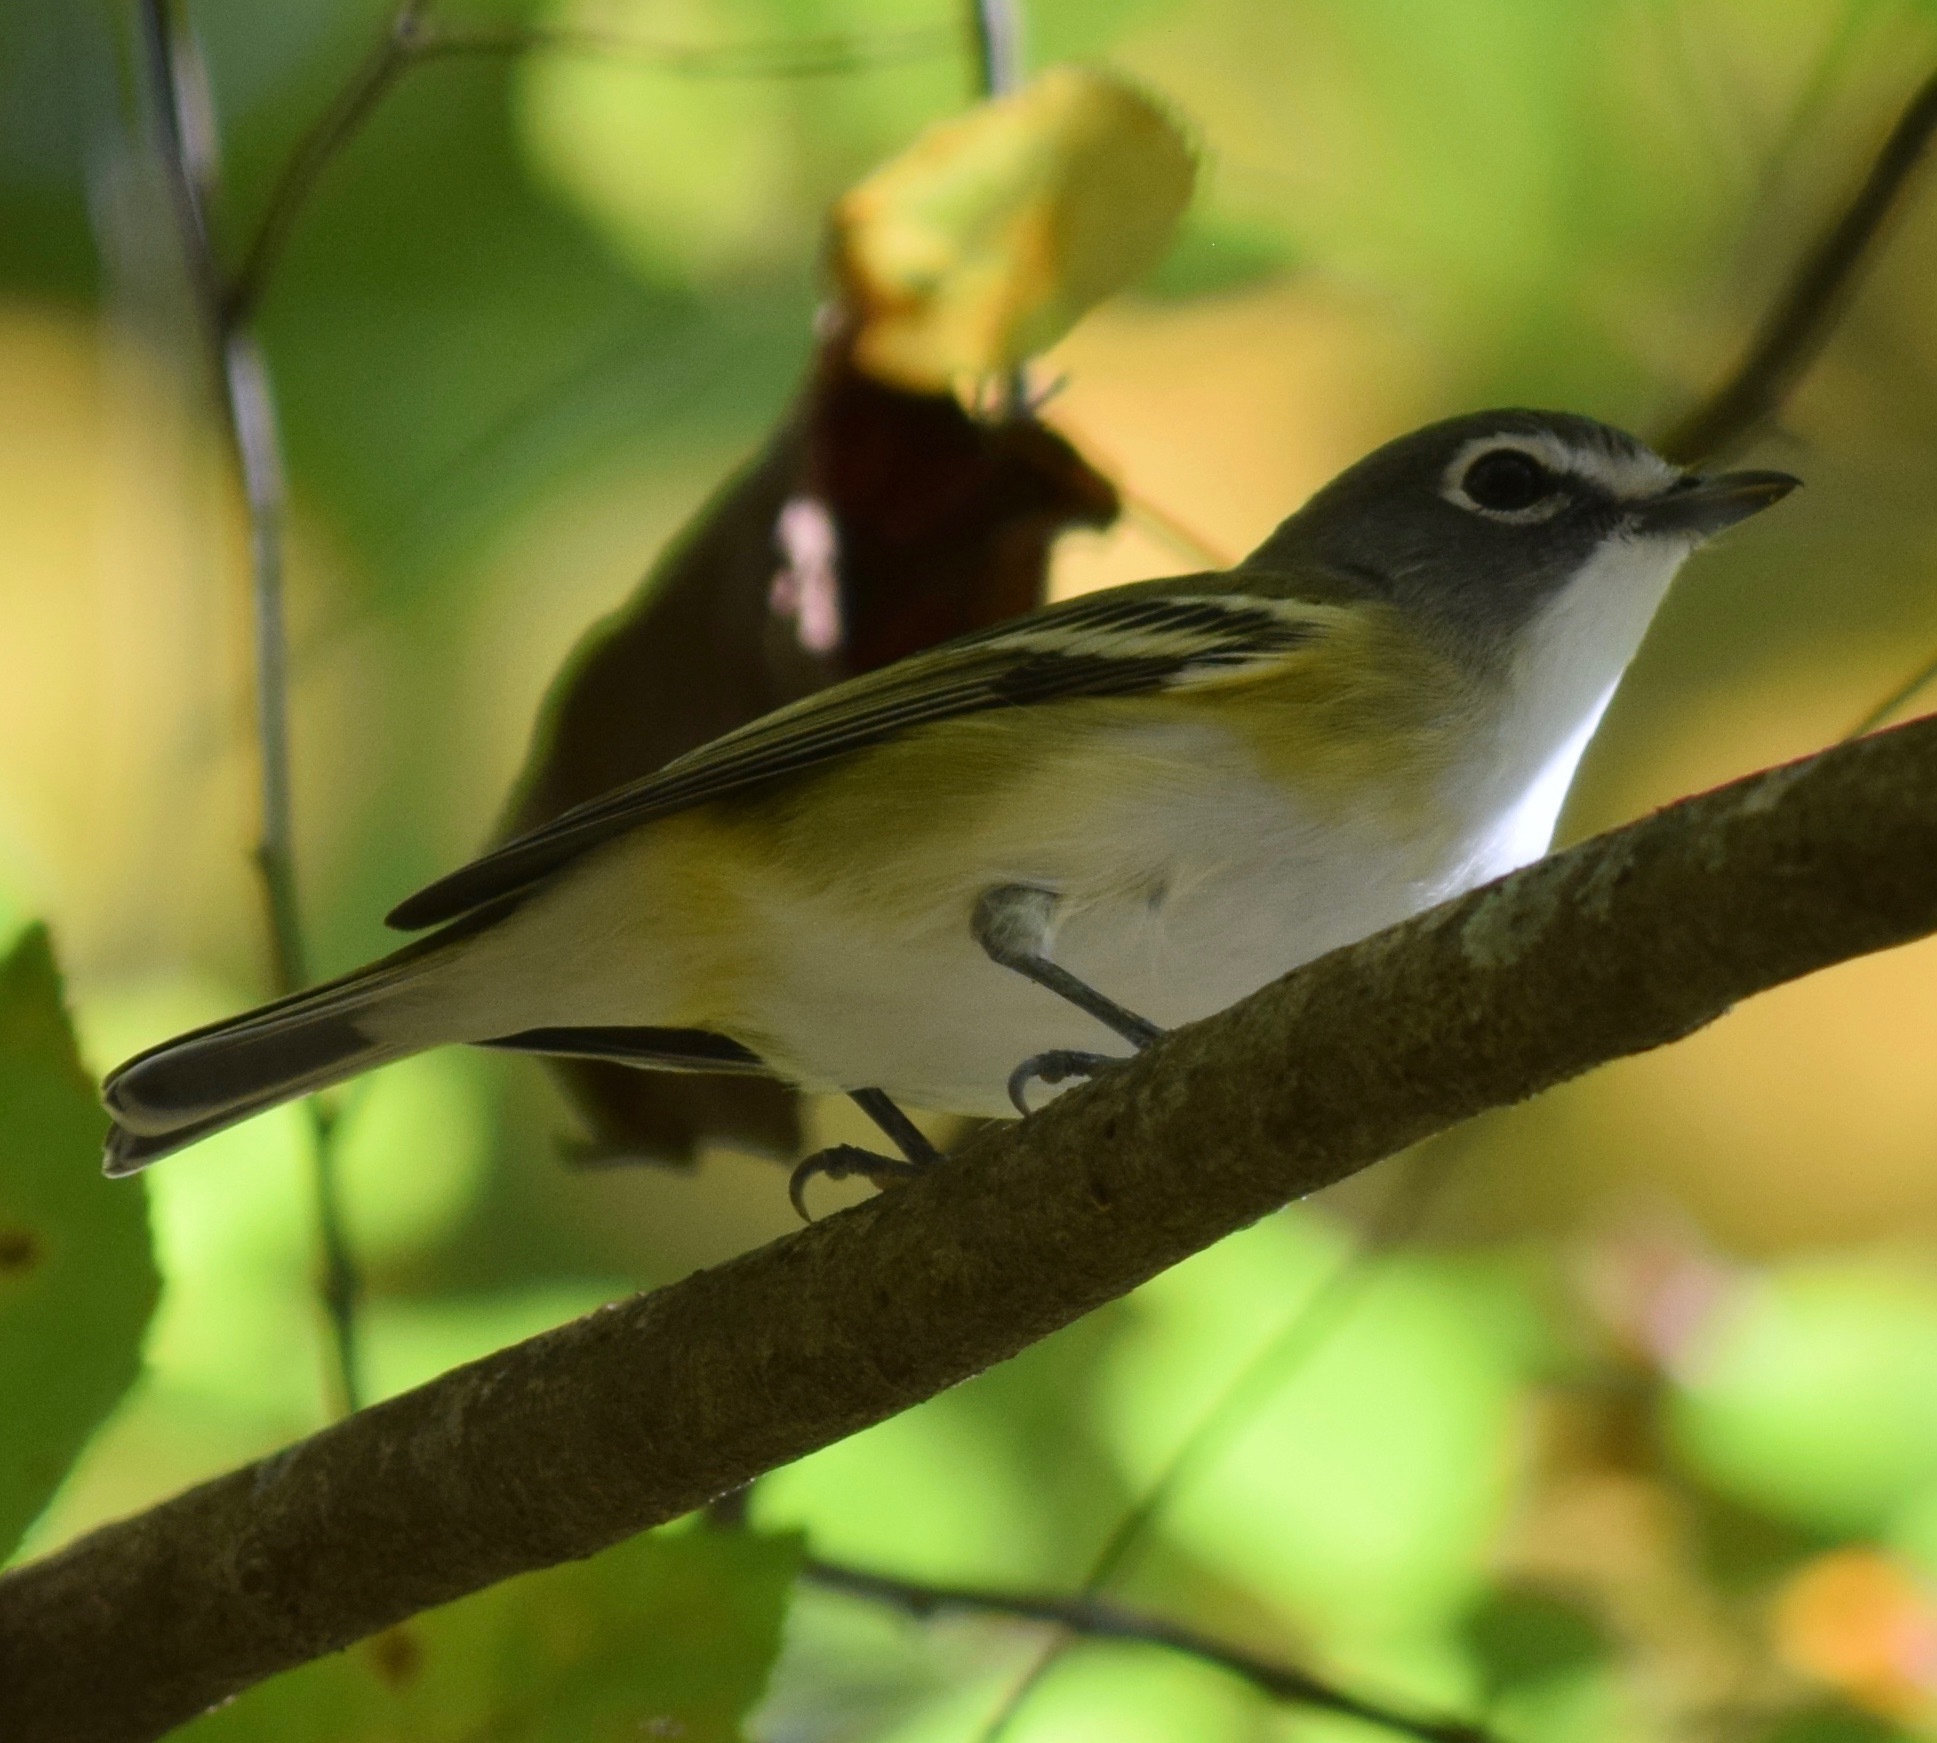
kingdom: Animalia
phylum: Chordata
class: Aves
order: Passeriformes
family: Vireonidae
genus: Vireo
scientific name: Vireo solitarius
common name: Blue-headed vireo
